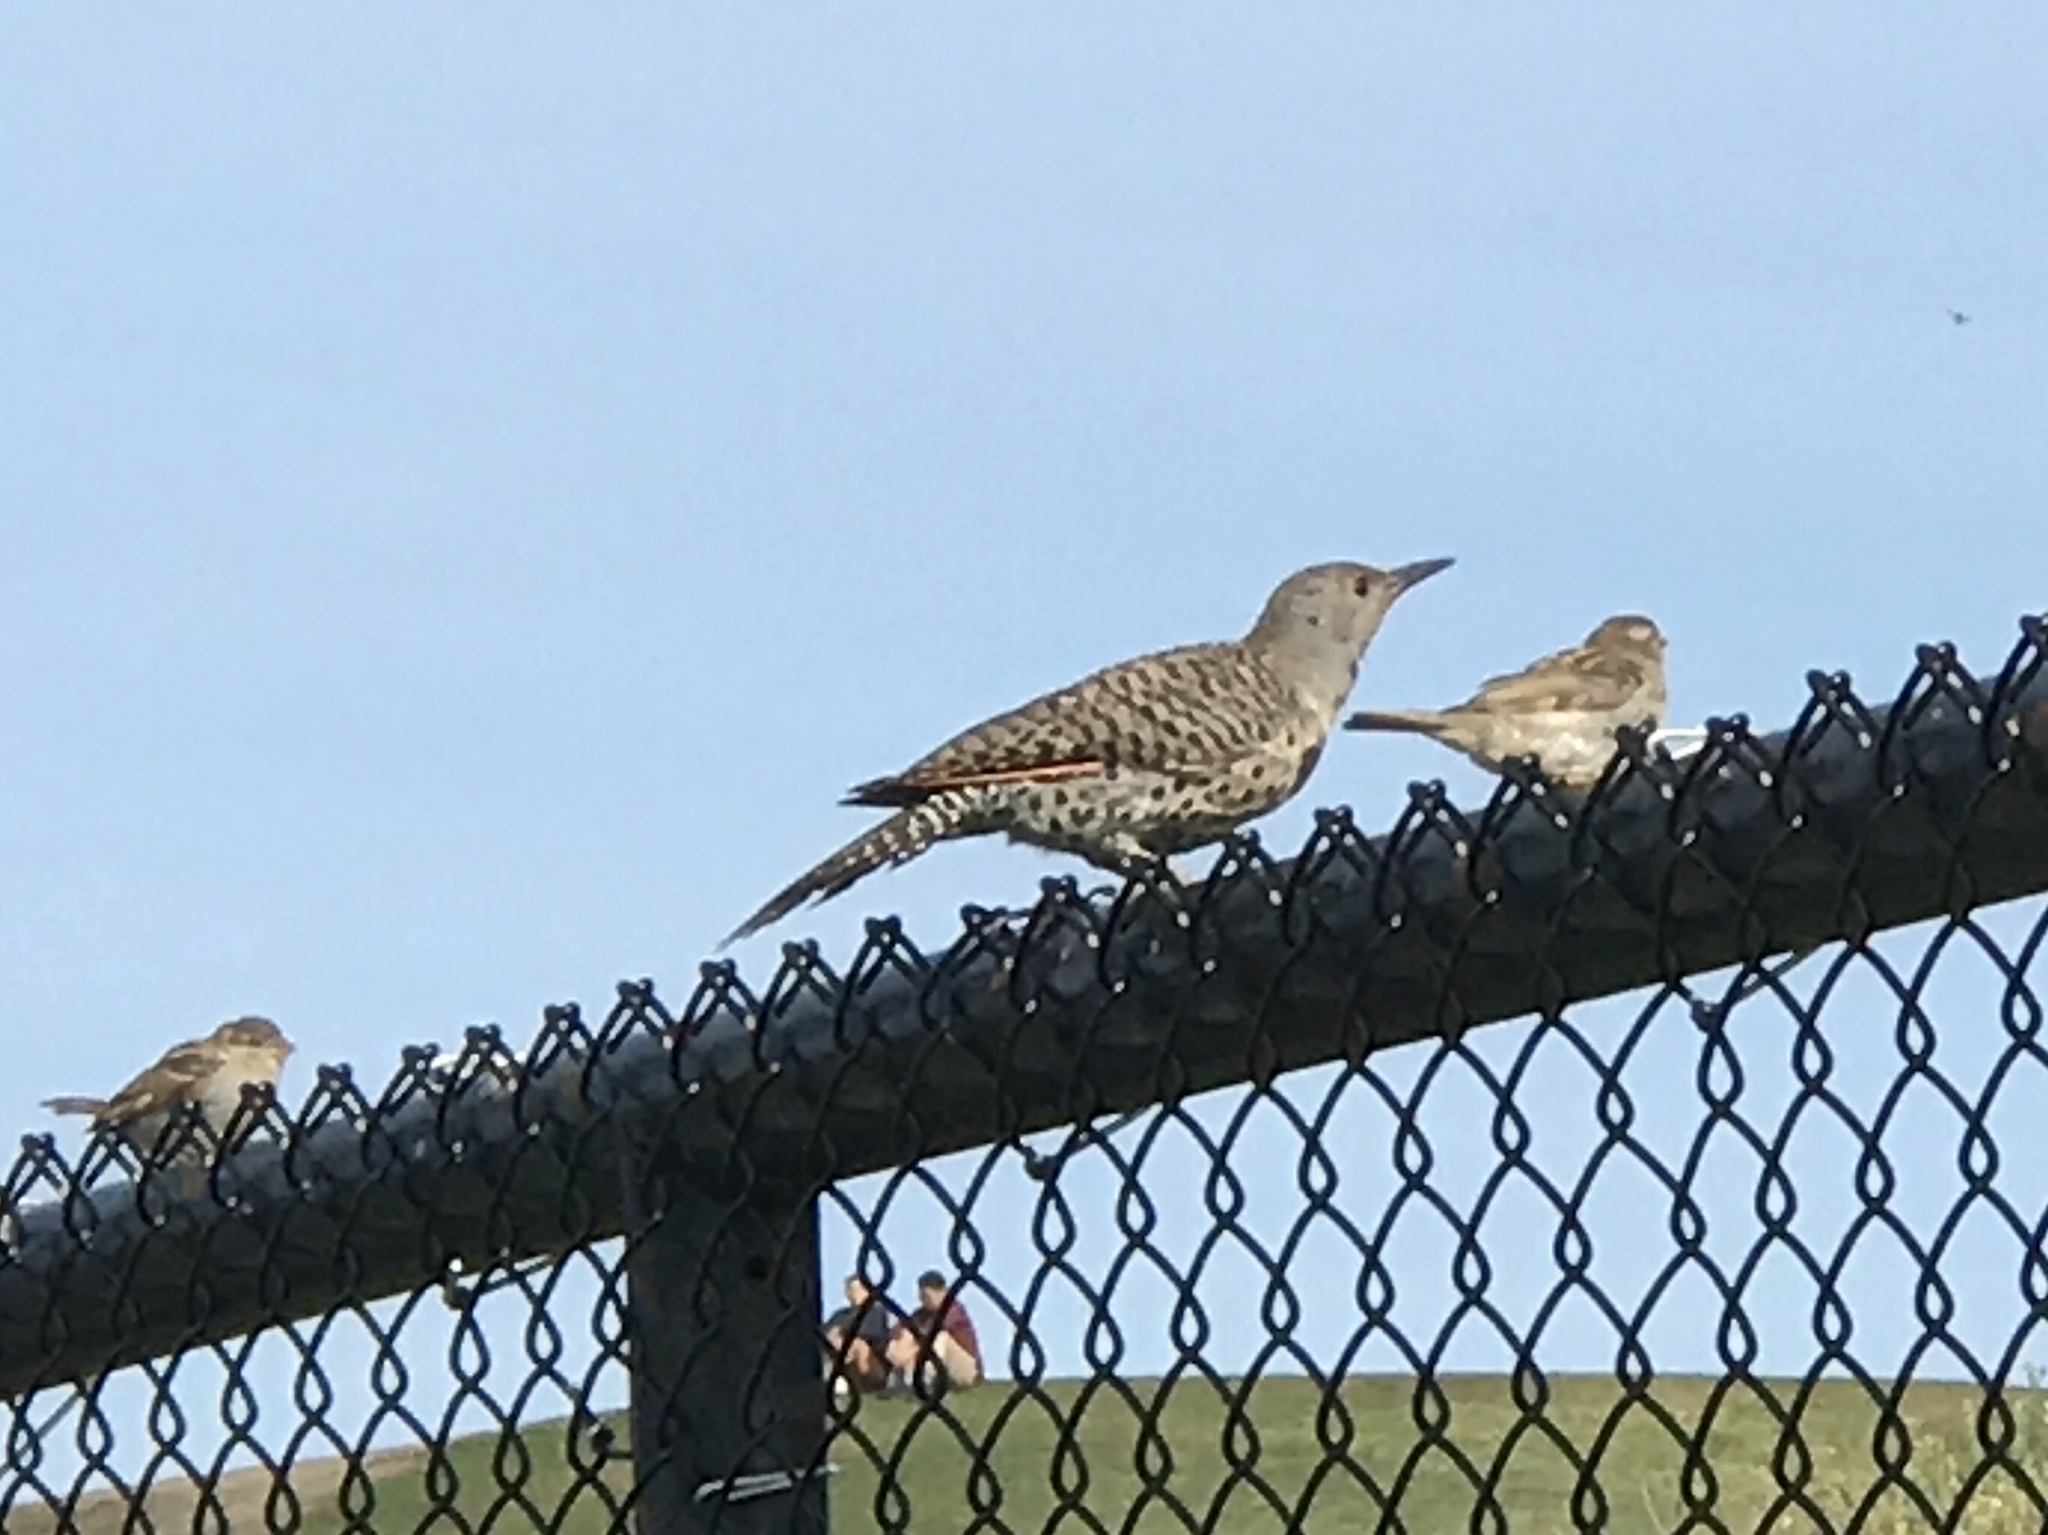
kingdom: Animalia
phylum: Chordata
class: Aves
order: Piciformes
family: Picidae
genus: Colaptes
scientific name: Colaptes auratus
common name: Northern flicker
